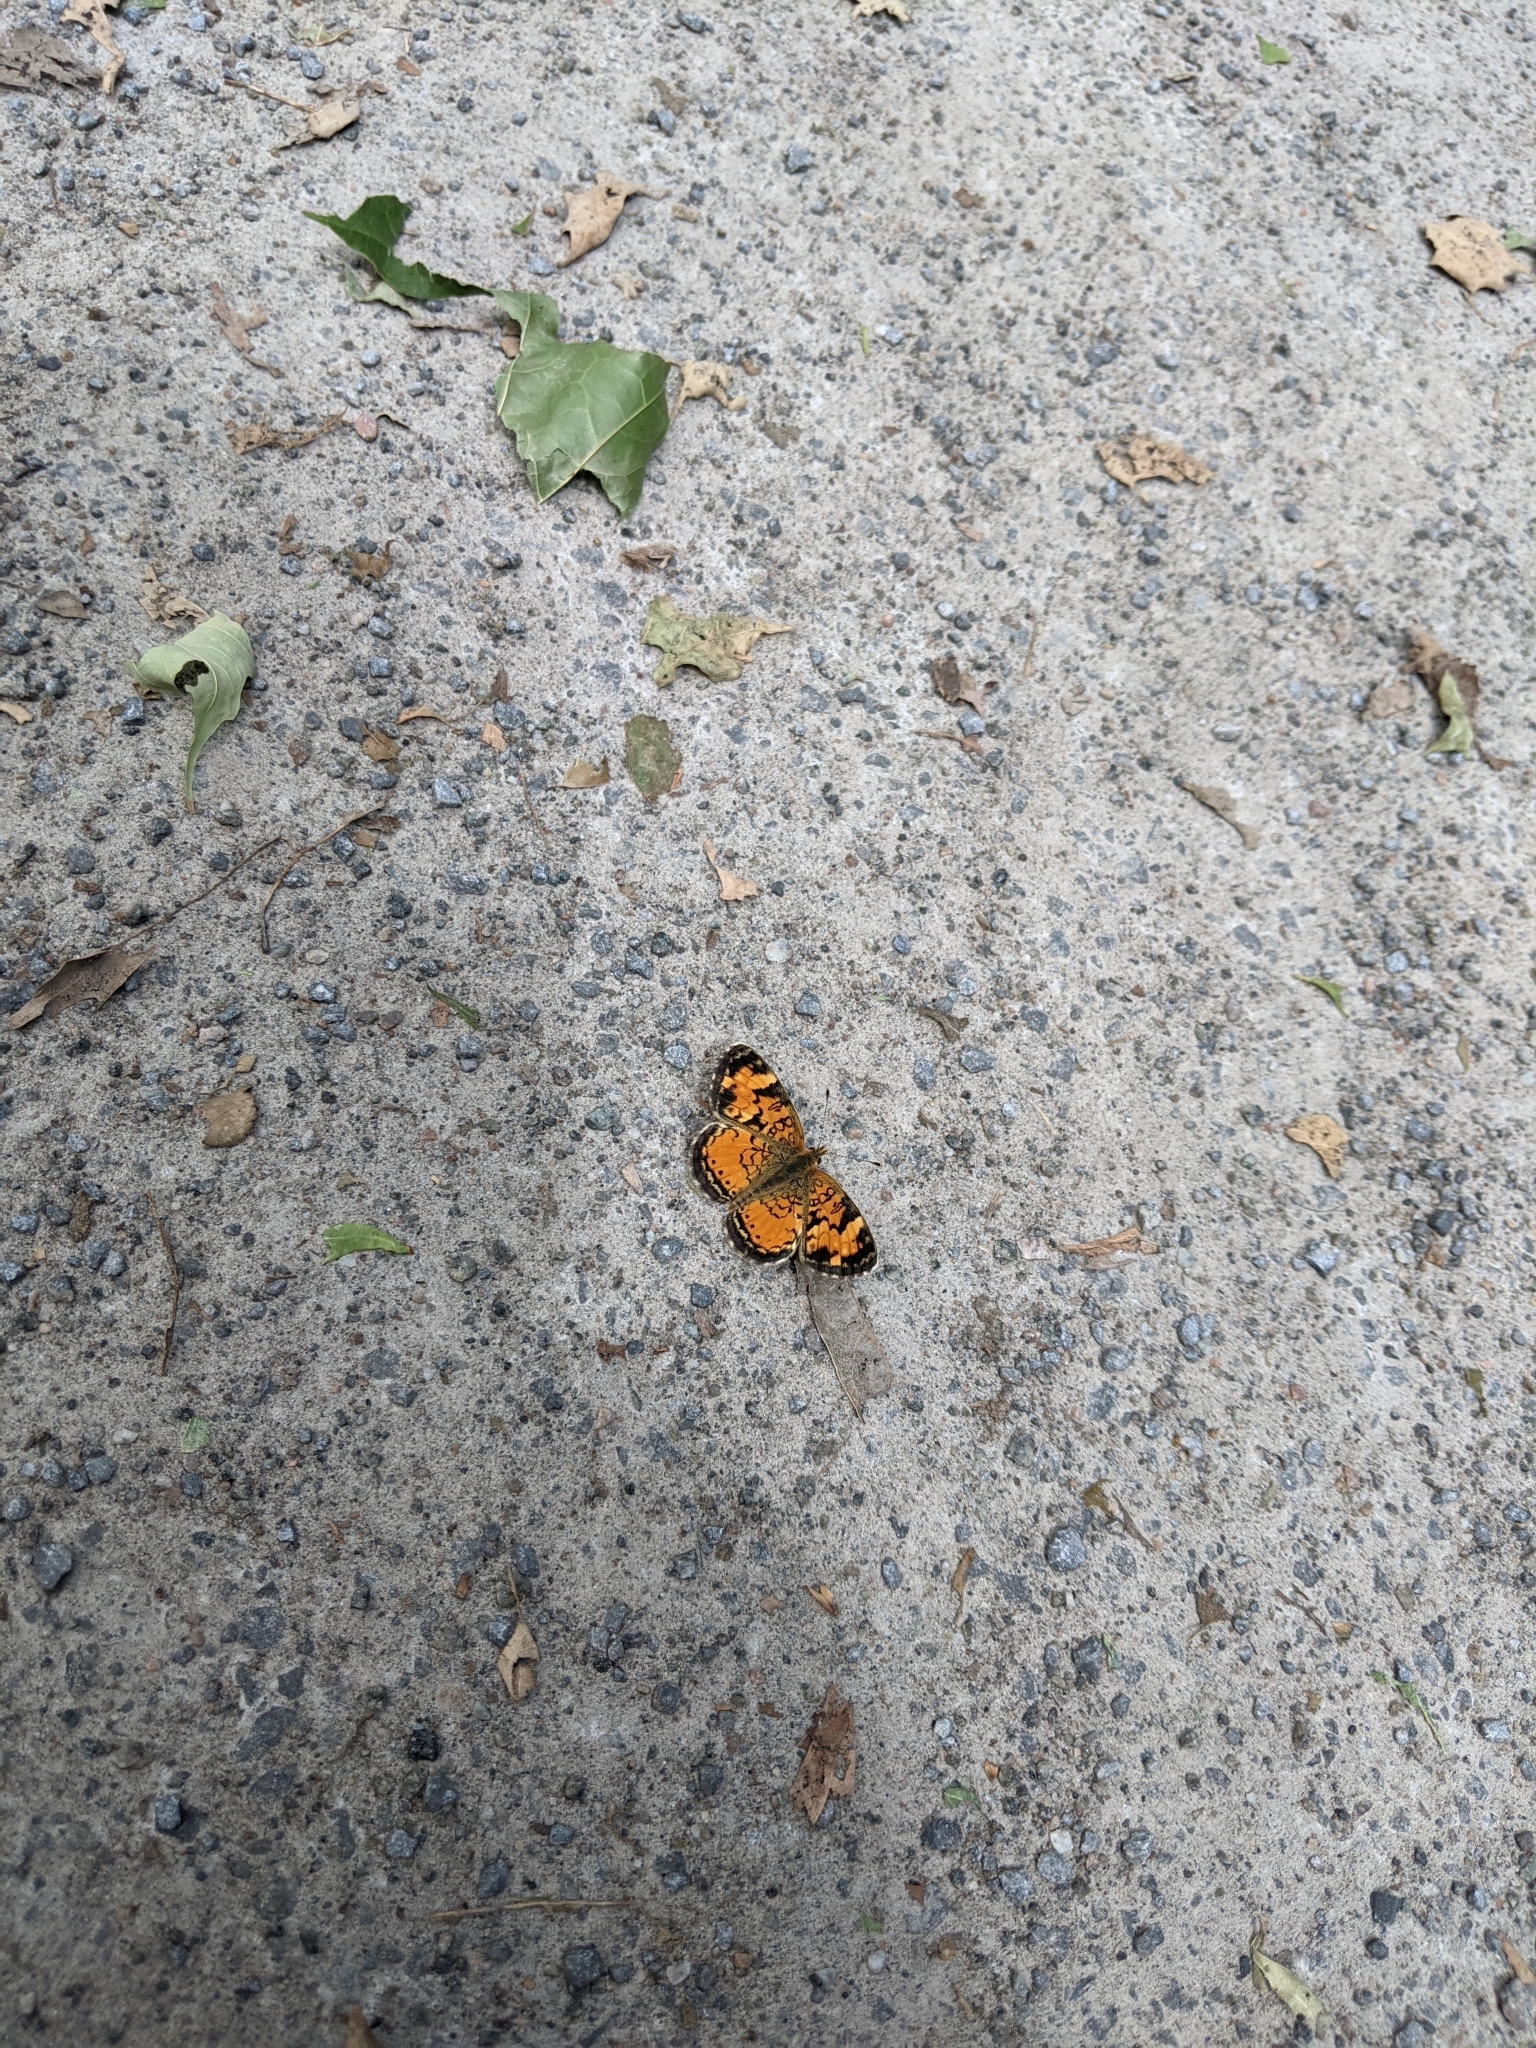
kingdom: Animalia
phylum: Arthropoda
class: Insecta
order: Lepidoptera
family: Nymphalidae
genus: Phyciodes
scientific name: Phyciodes tharos
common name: Pearl crescent
